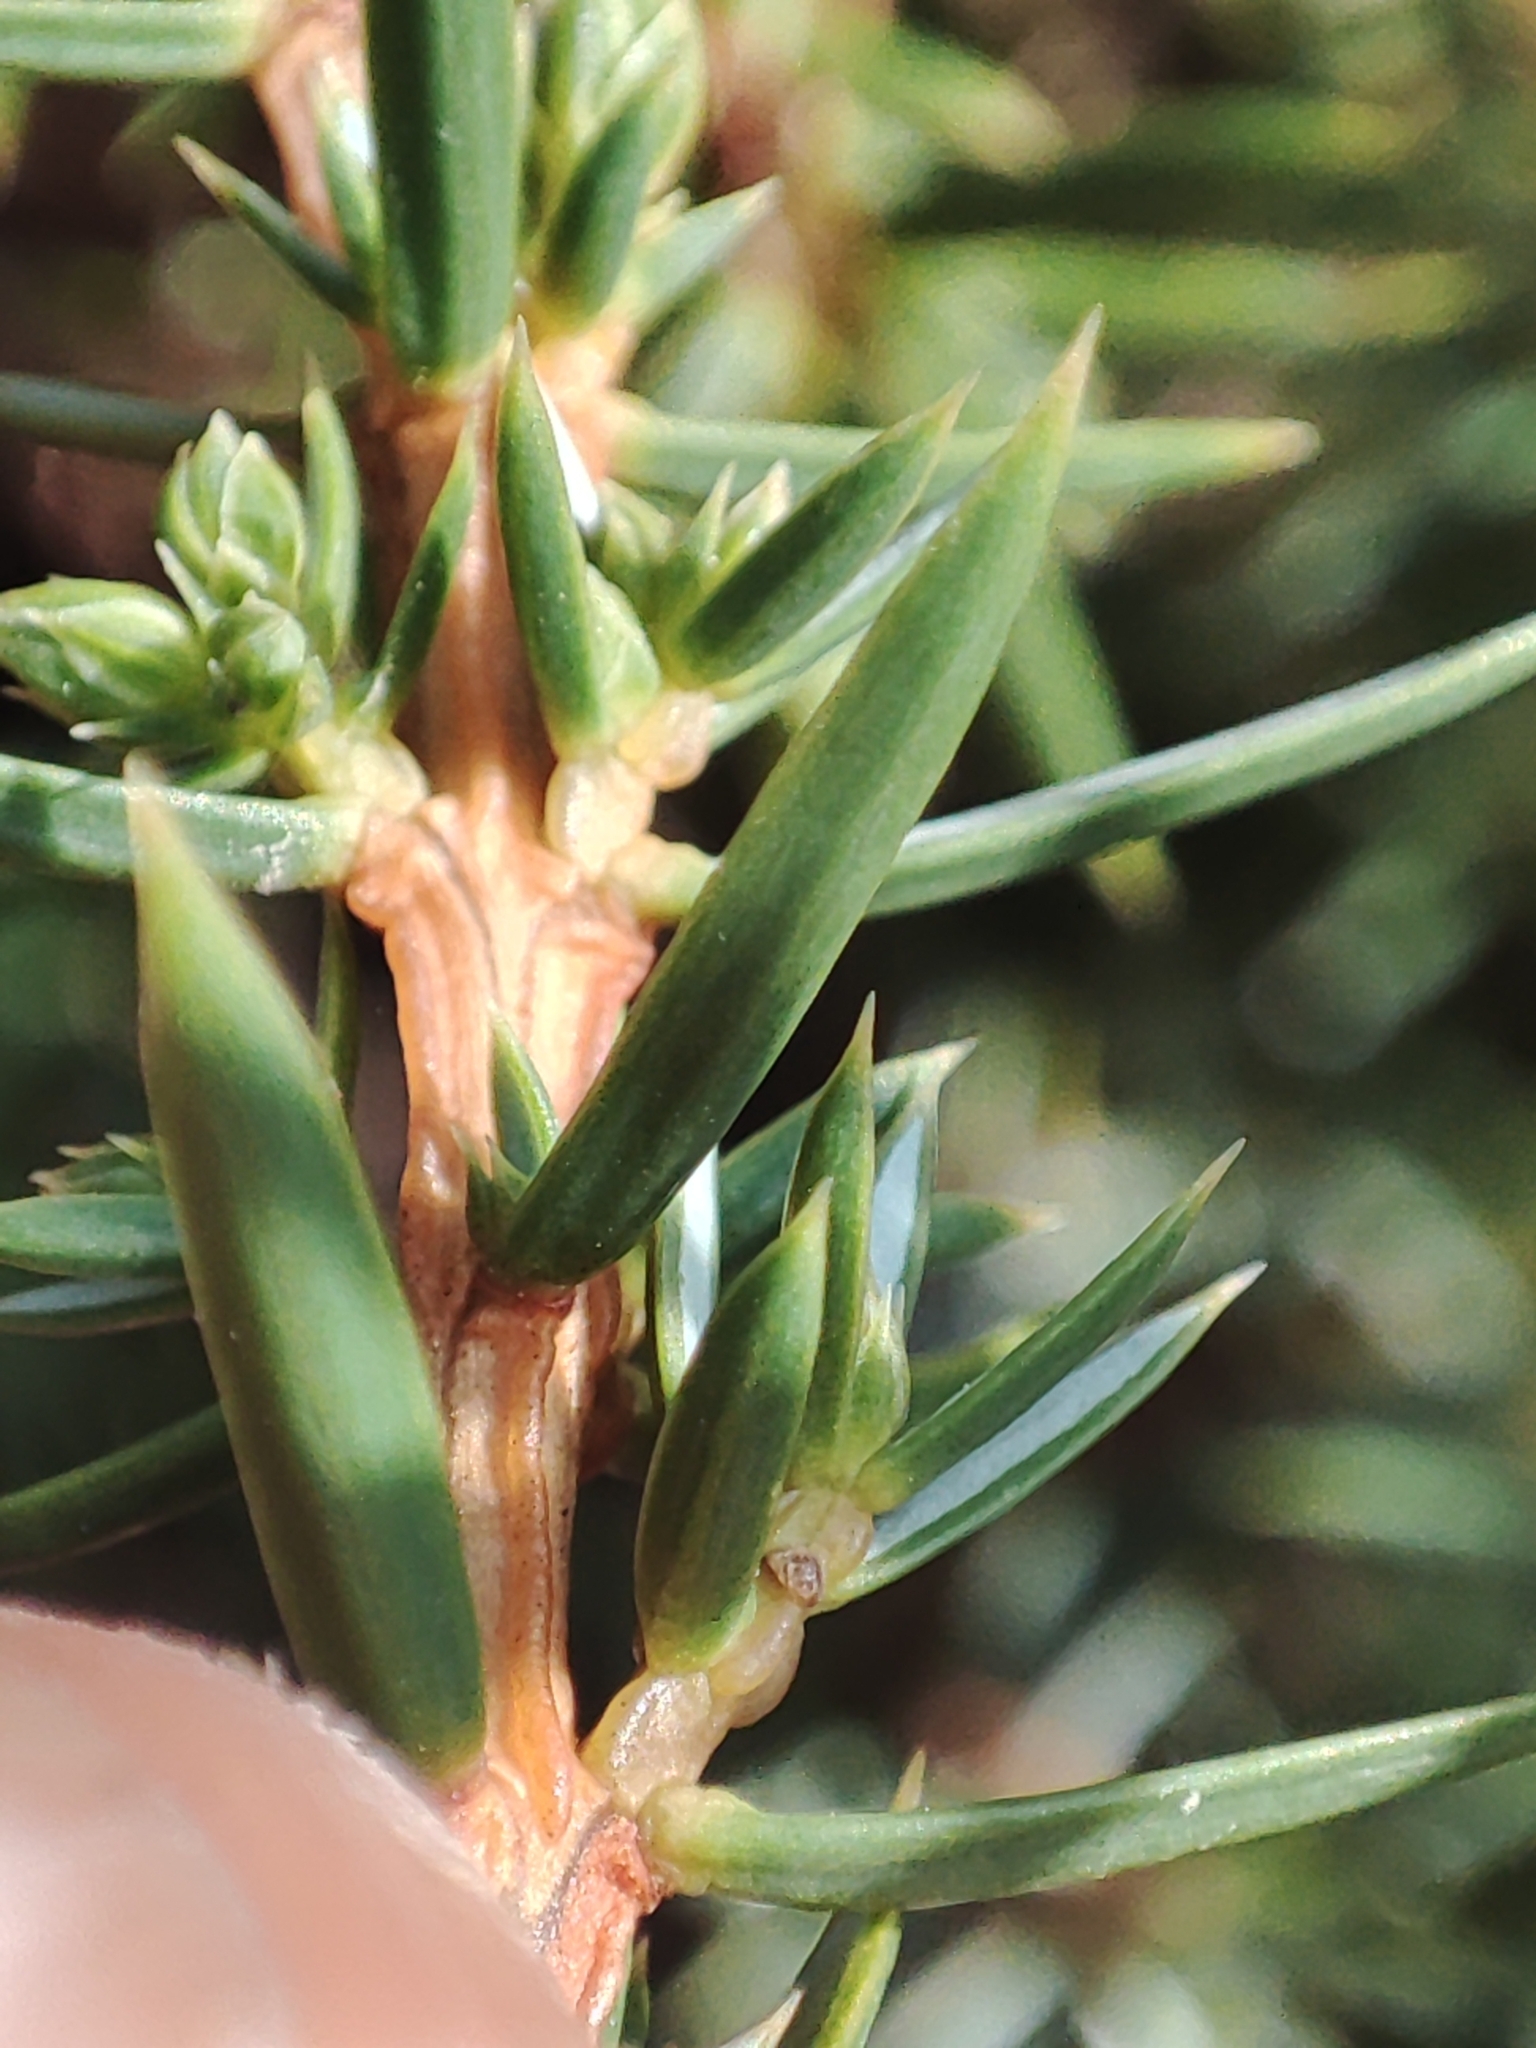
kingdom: Plantae
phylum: Tracheophyta
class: Pinopsida
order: Pinales
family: Cupressaceae
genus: Juniperus
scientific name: Juniperus communis
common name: Common juniper
